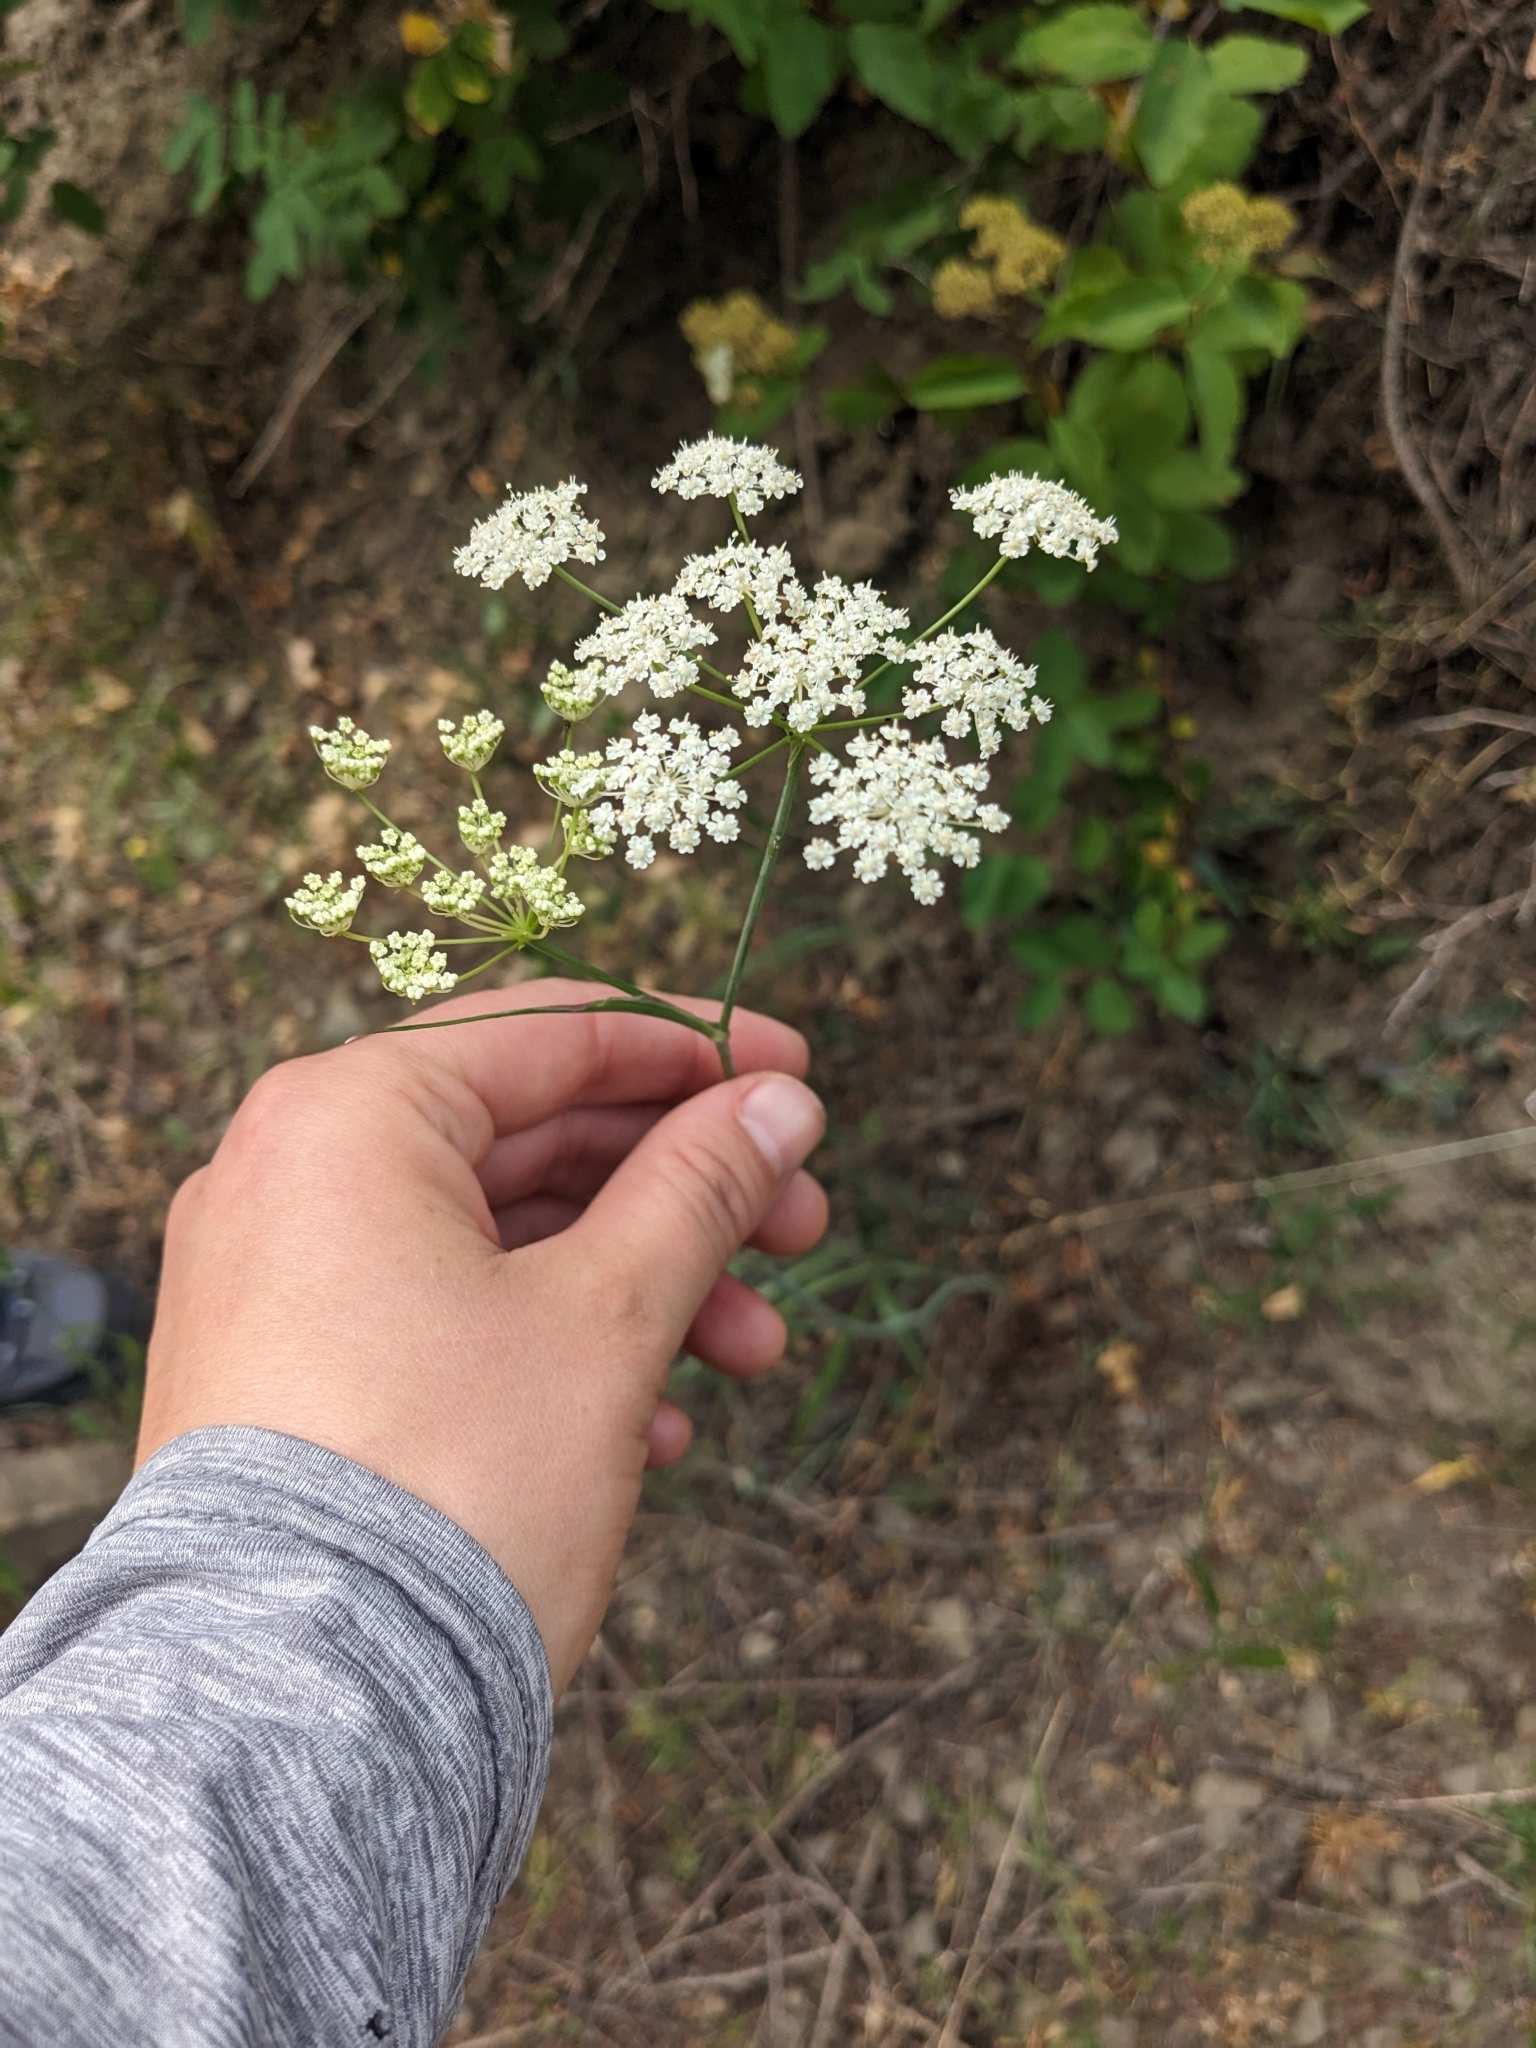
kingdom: Plantae
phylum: Tracheophyta
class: Magnoliopsida
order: Apiales
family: Apiaceae
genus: Perideridia
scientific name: Perideridia gairdneri
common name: False caraway
